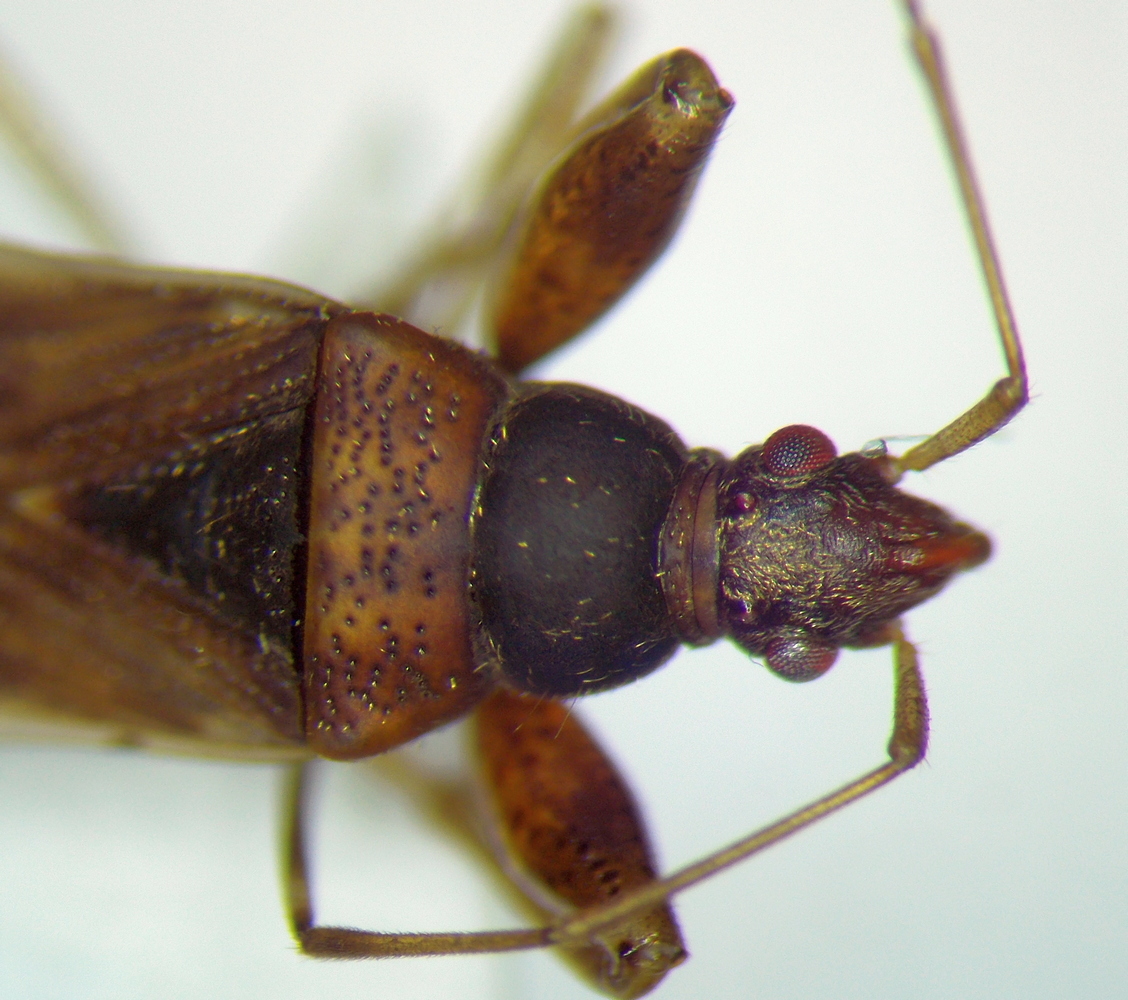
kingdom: Animalia
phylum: Arthropoda
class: Insecta
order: Hemiptera
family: Rhyparochromidae
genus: Froeschneria
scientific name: Froeschneria multispinus
